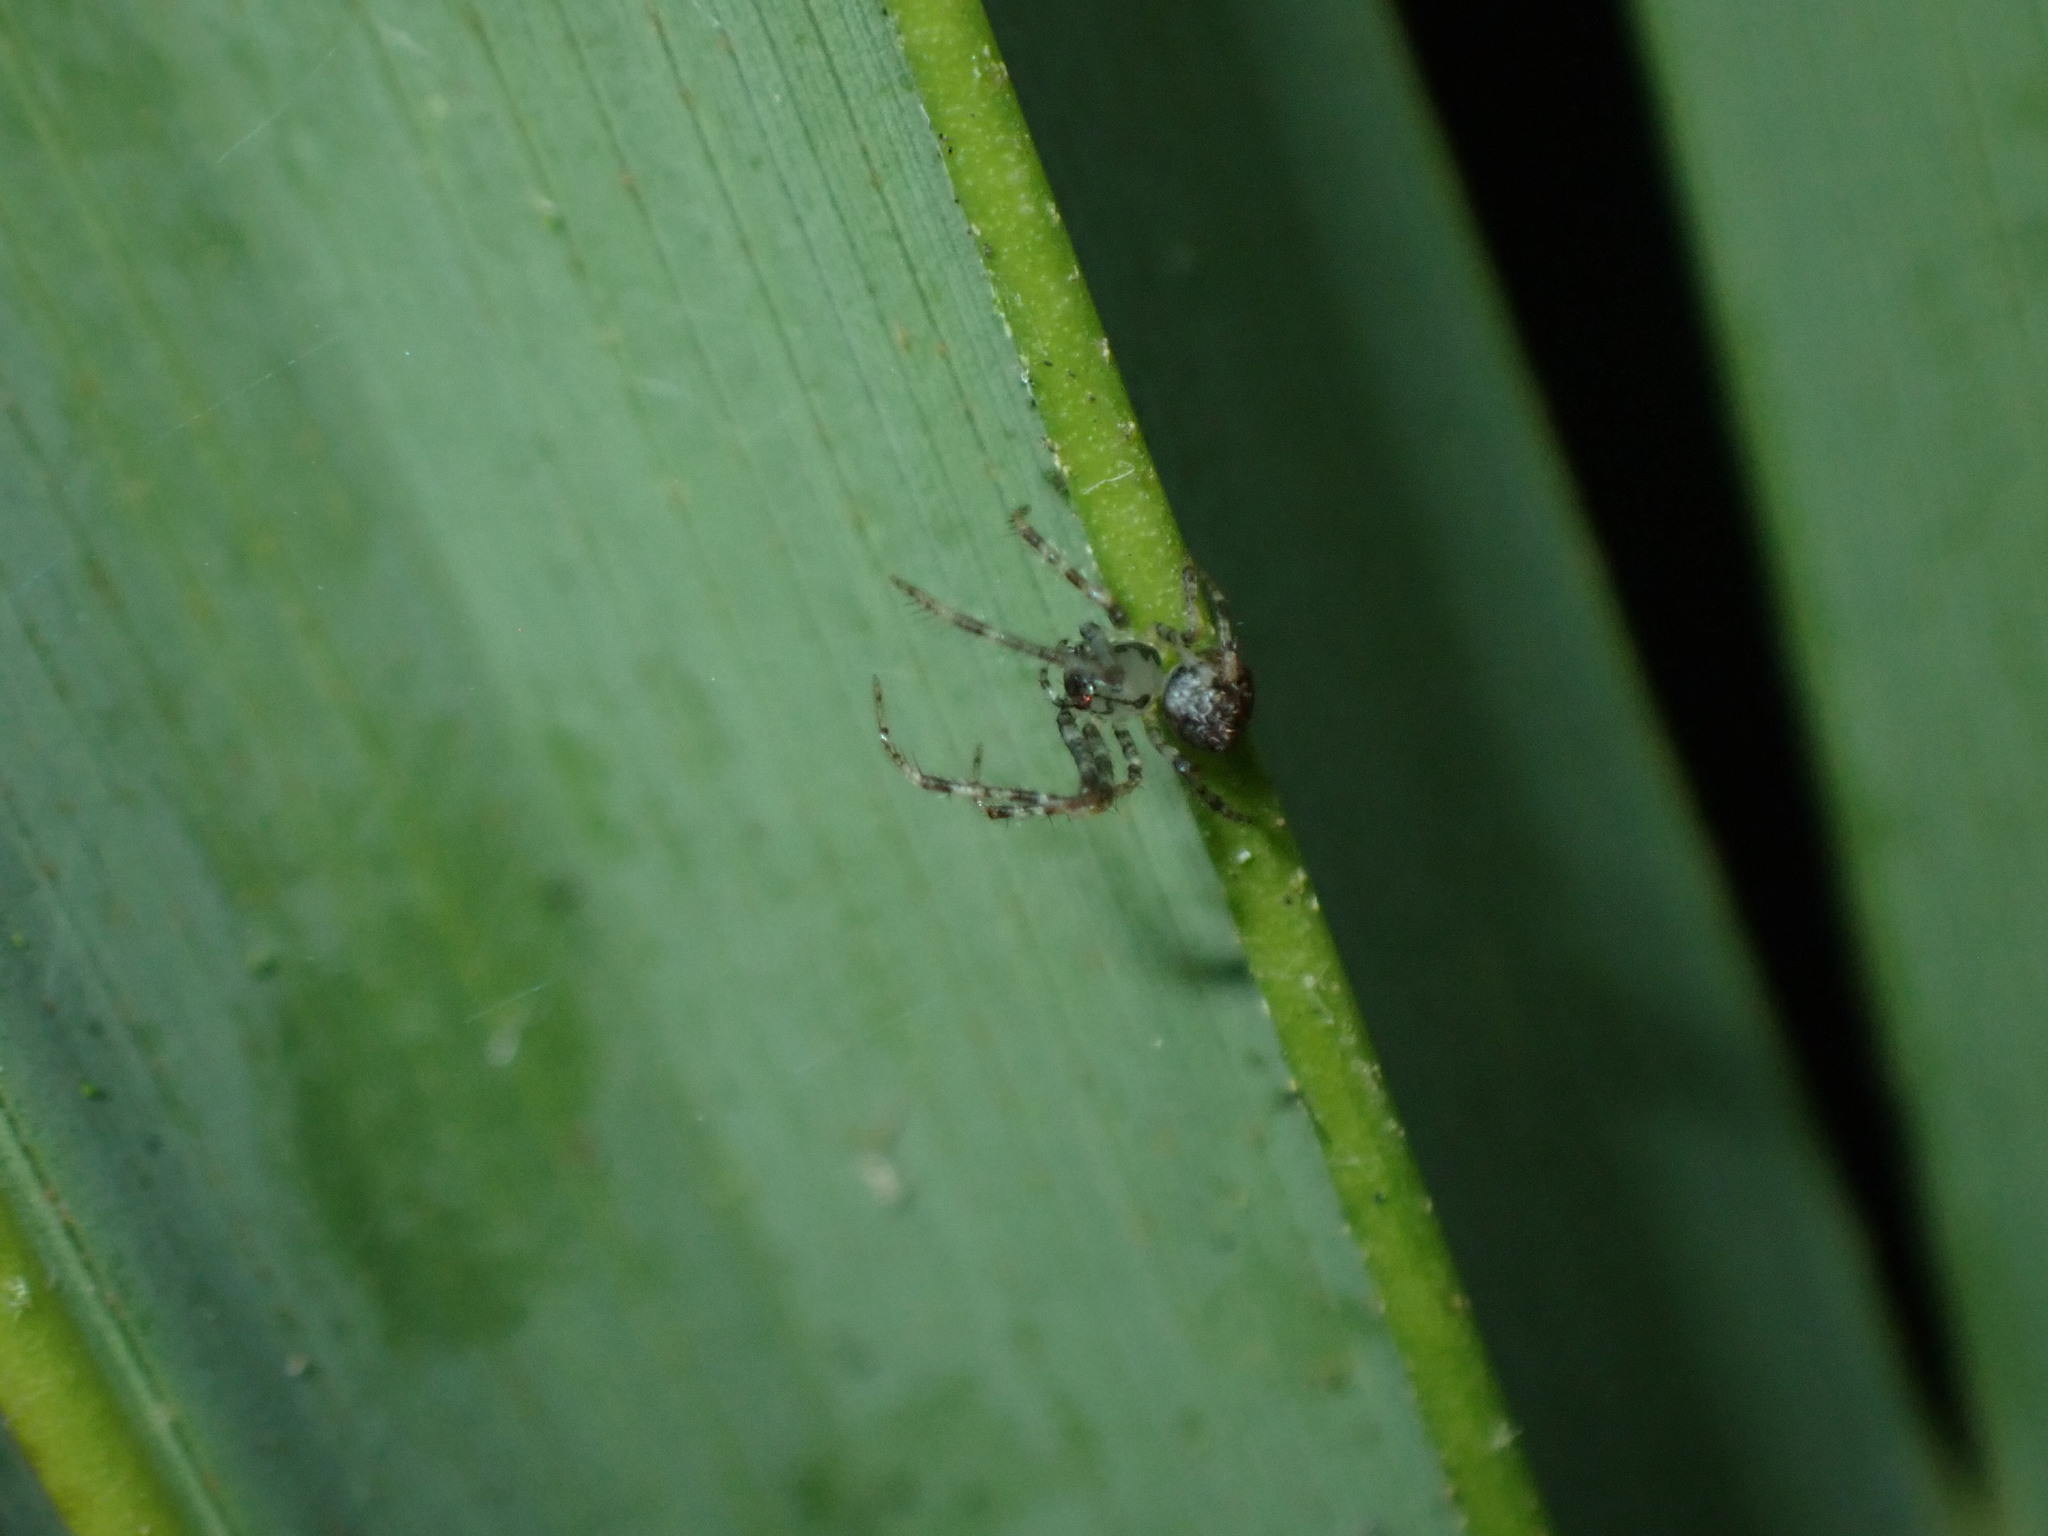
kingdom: Animalia
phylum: Arthropoda
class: Arachnida
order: Araneae
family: Mimetidae
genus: Ero
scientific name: Ero aphana
